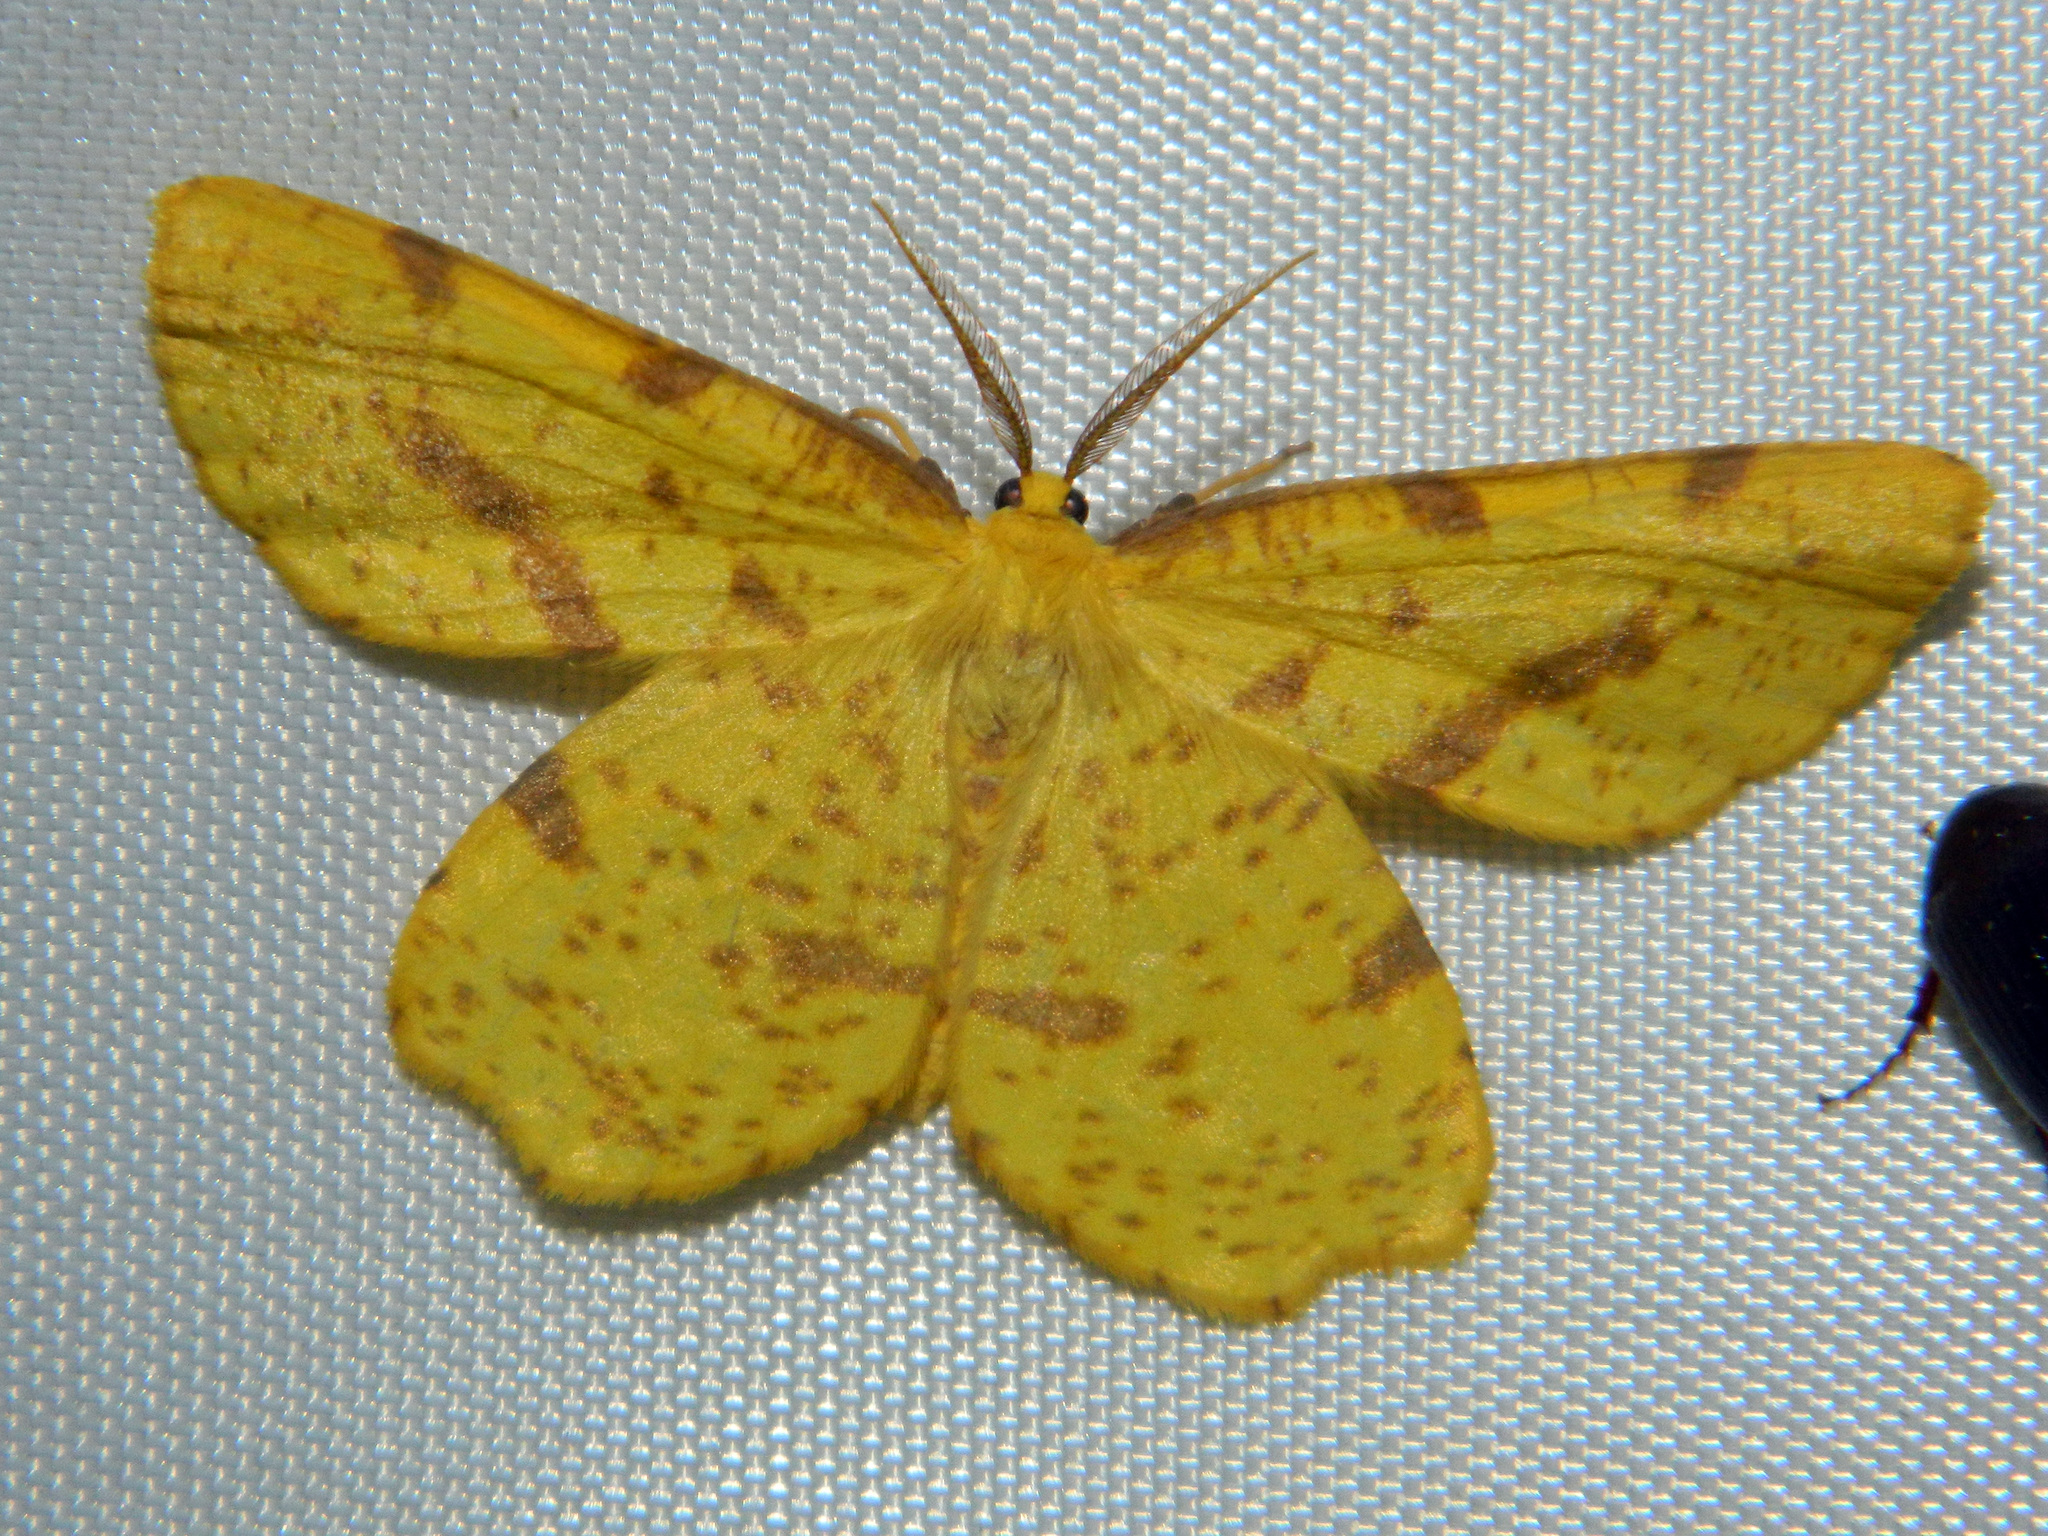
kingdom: Animalia
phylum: Arthropoda
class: Insecta
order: Lepidoptera
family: Geometridae
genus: Xanthotype
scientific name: Xanthotype
